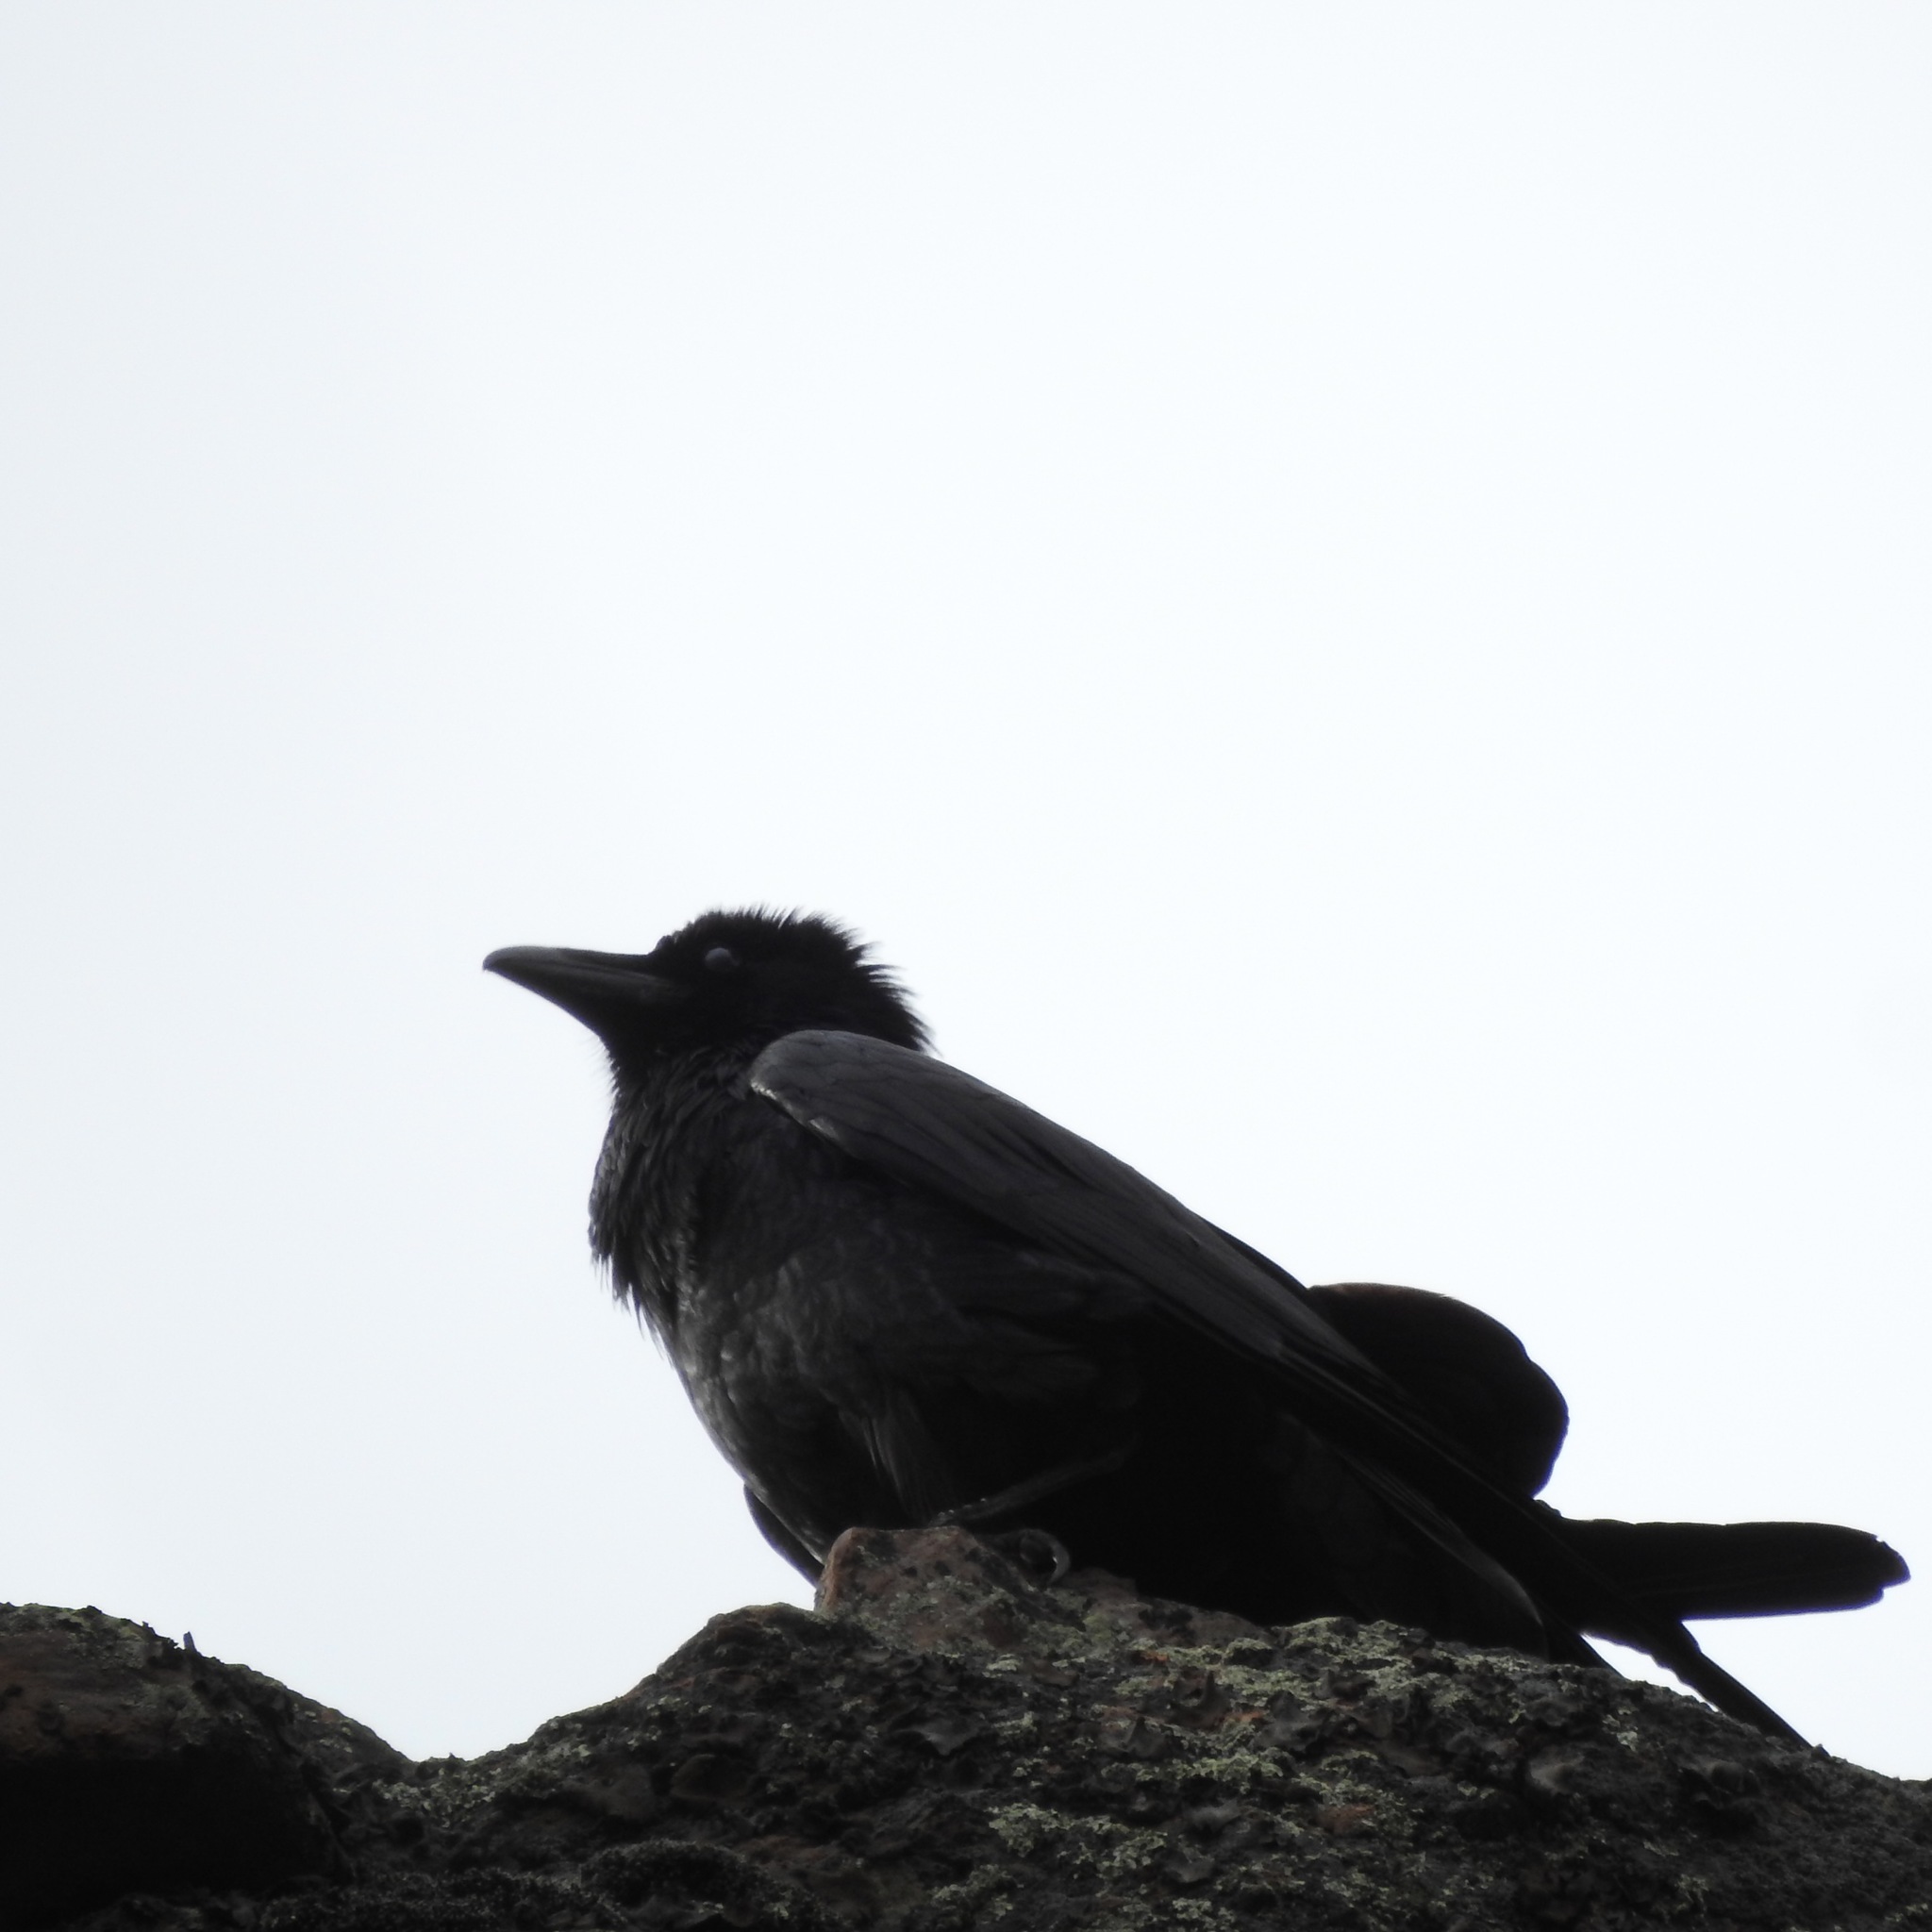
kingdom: Animalia
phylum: Chordata
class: Aves
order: Passeriformes
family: Corvidae
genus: Corvus
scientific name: Corvus corax
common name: Common raven
